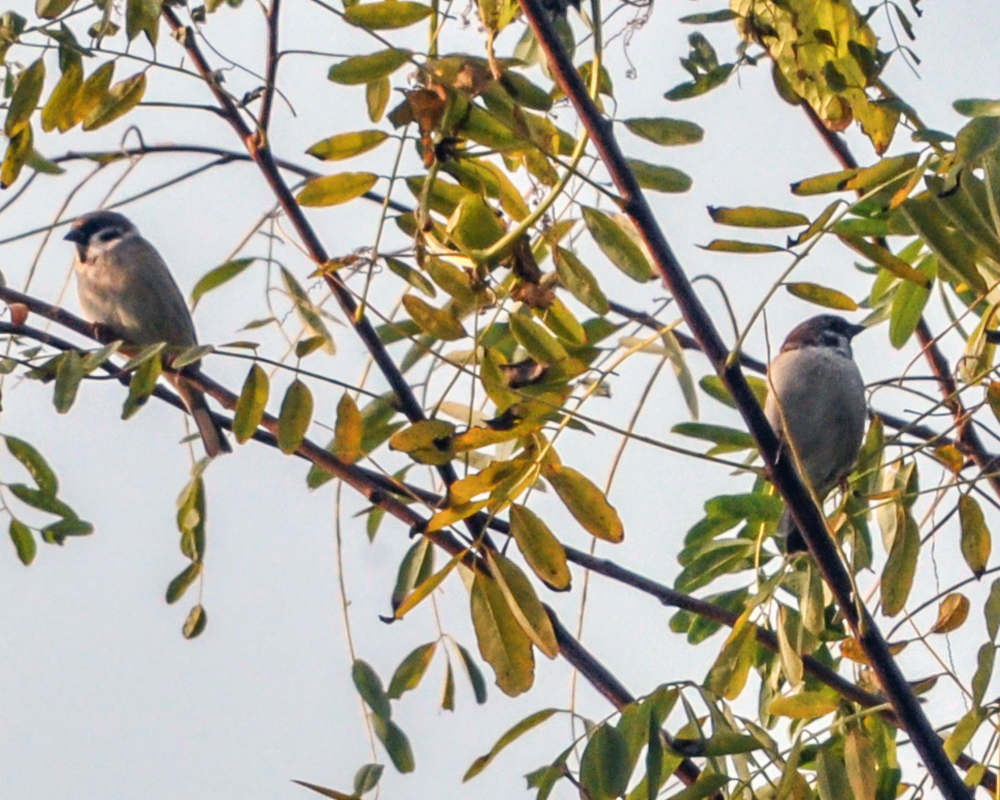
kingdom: Animalia
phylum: Chordata
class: Aves
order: Passeriformes
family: Passeridae
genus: Passer
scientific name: Passer montanus
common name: Eurasian tree sparrow
